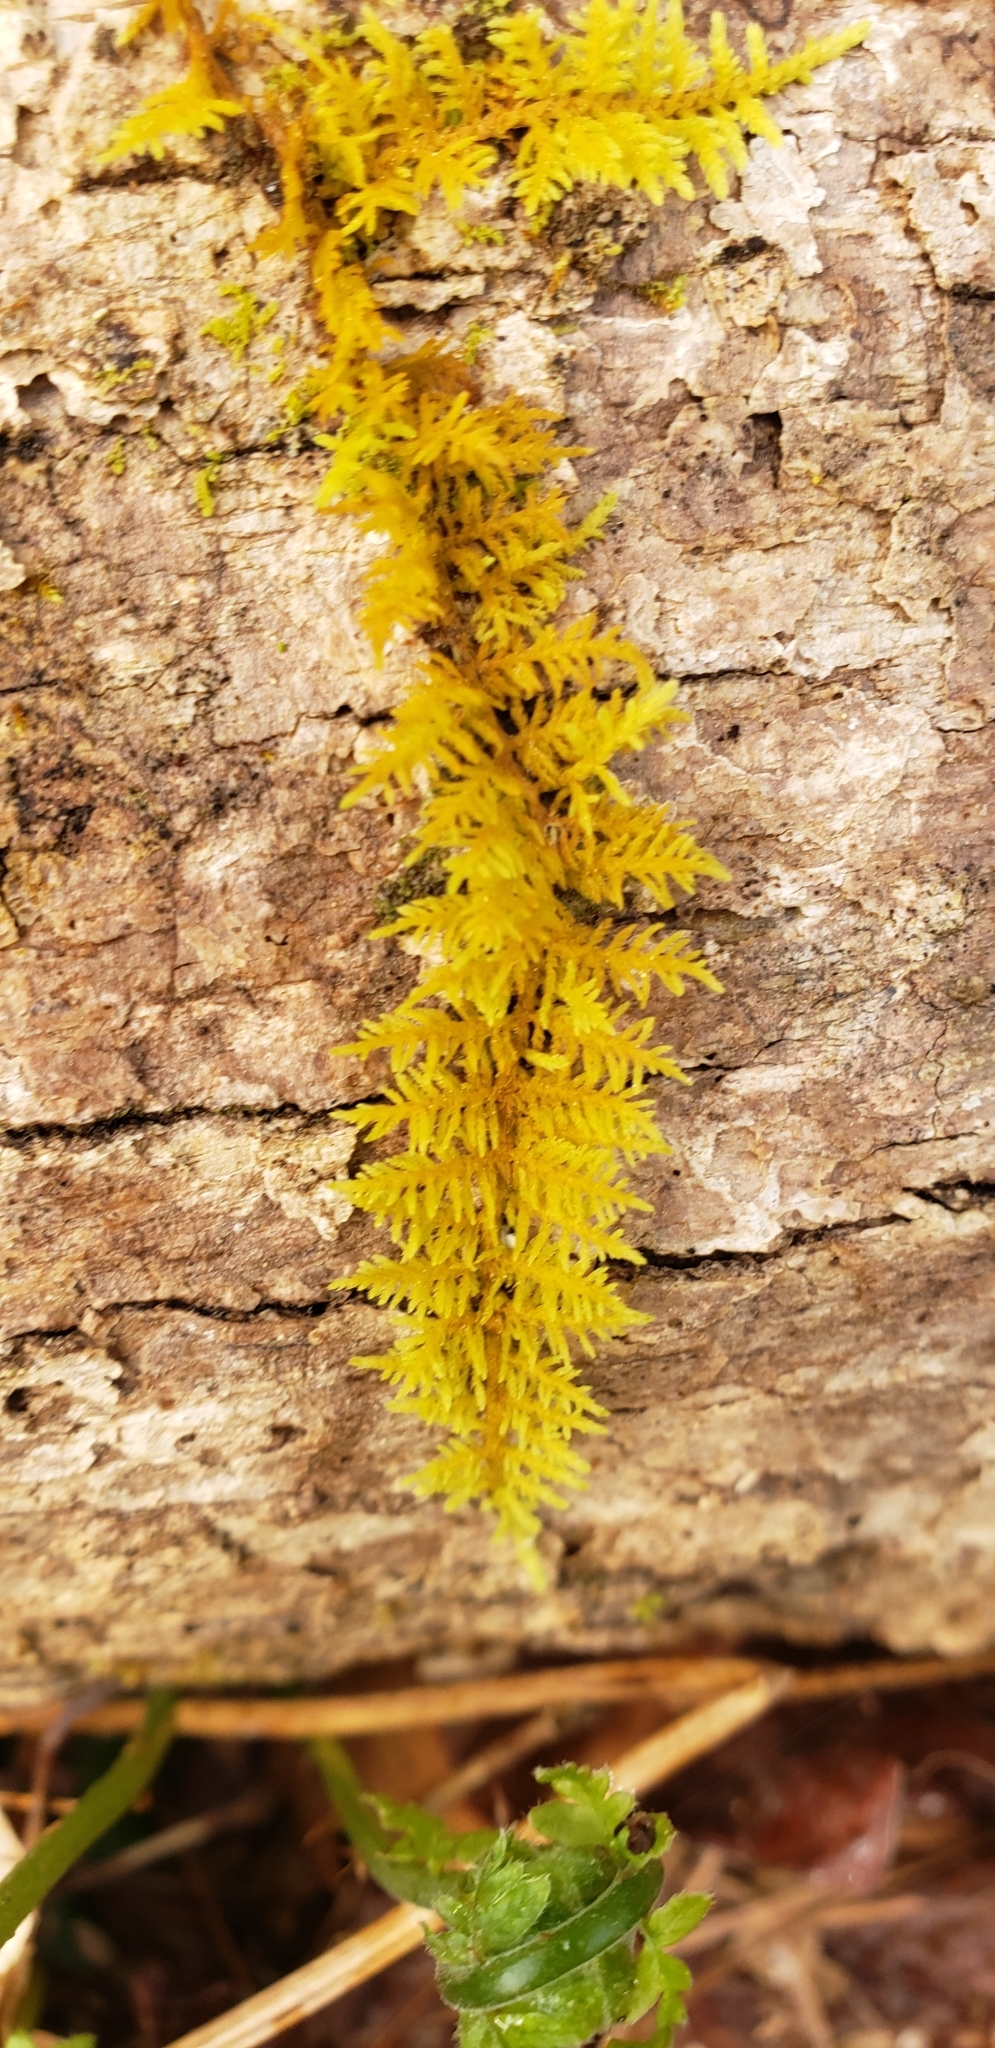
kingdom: Plantae
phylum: Bryophyta
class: Bryopsida
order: Hypnales
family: Thuidiaceae
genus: Thuidium
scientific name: Thuidium delicatulum
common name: Delicate fern moss
